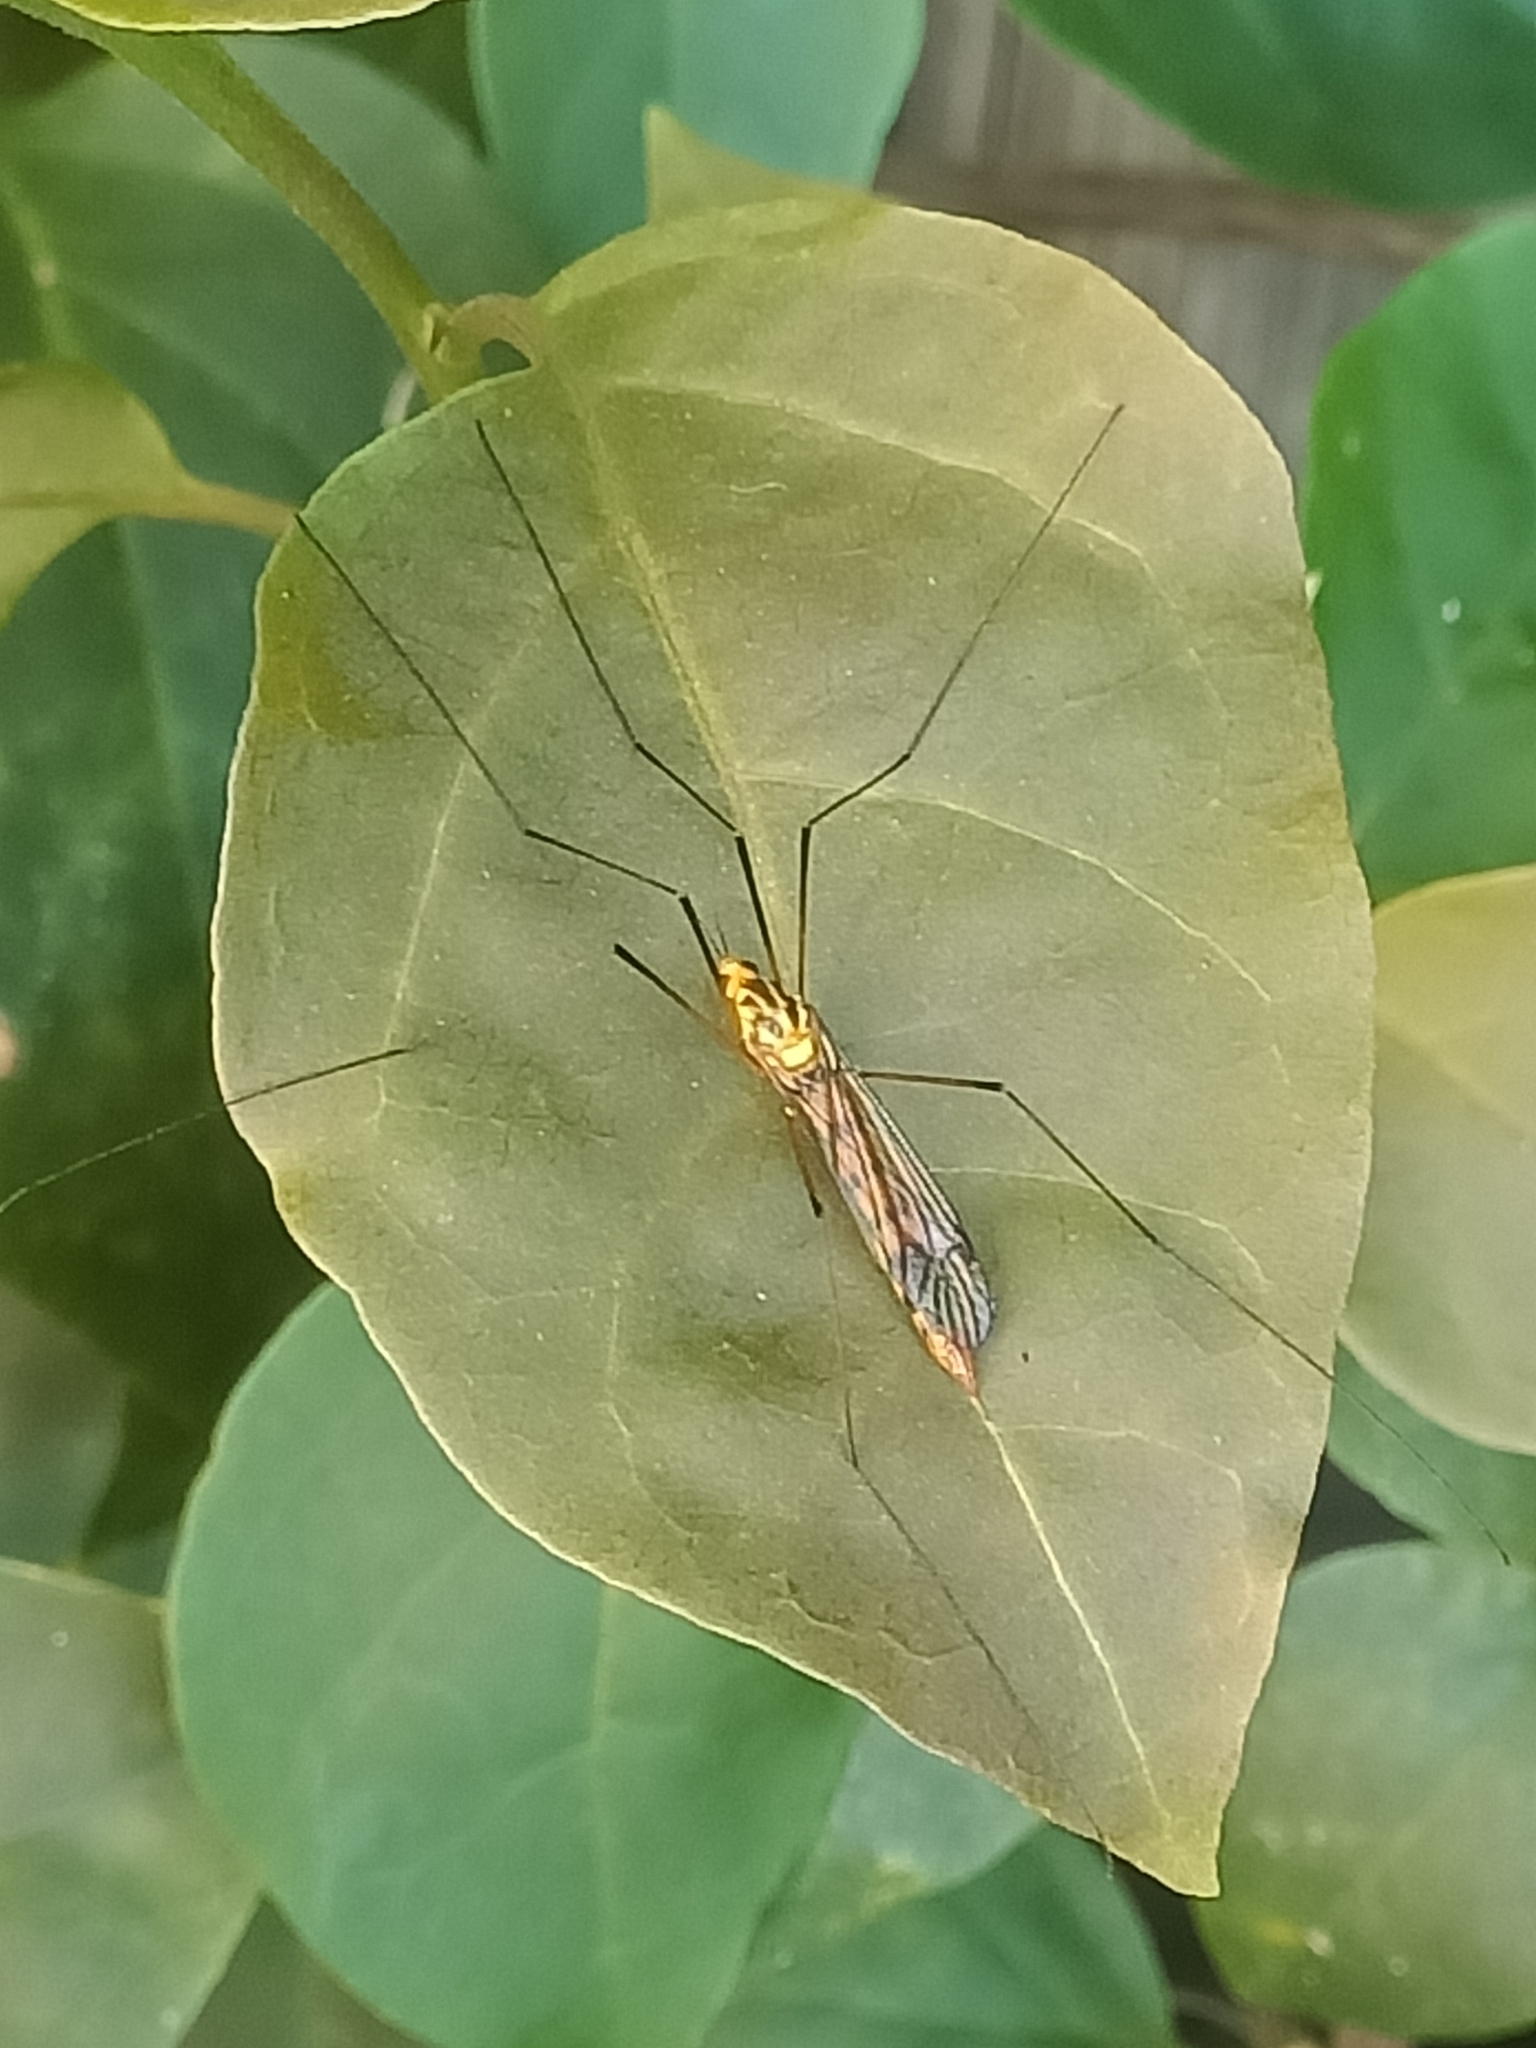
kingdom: Animalia
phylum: Arthropoda
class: Insecta
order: Diptera
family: Tipulidae
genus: Nephrotoma
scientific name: Nephrotoma australasiae
